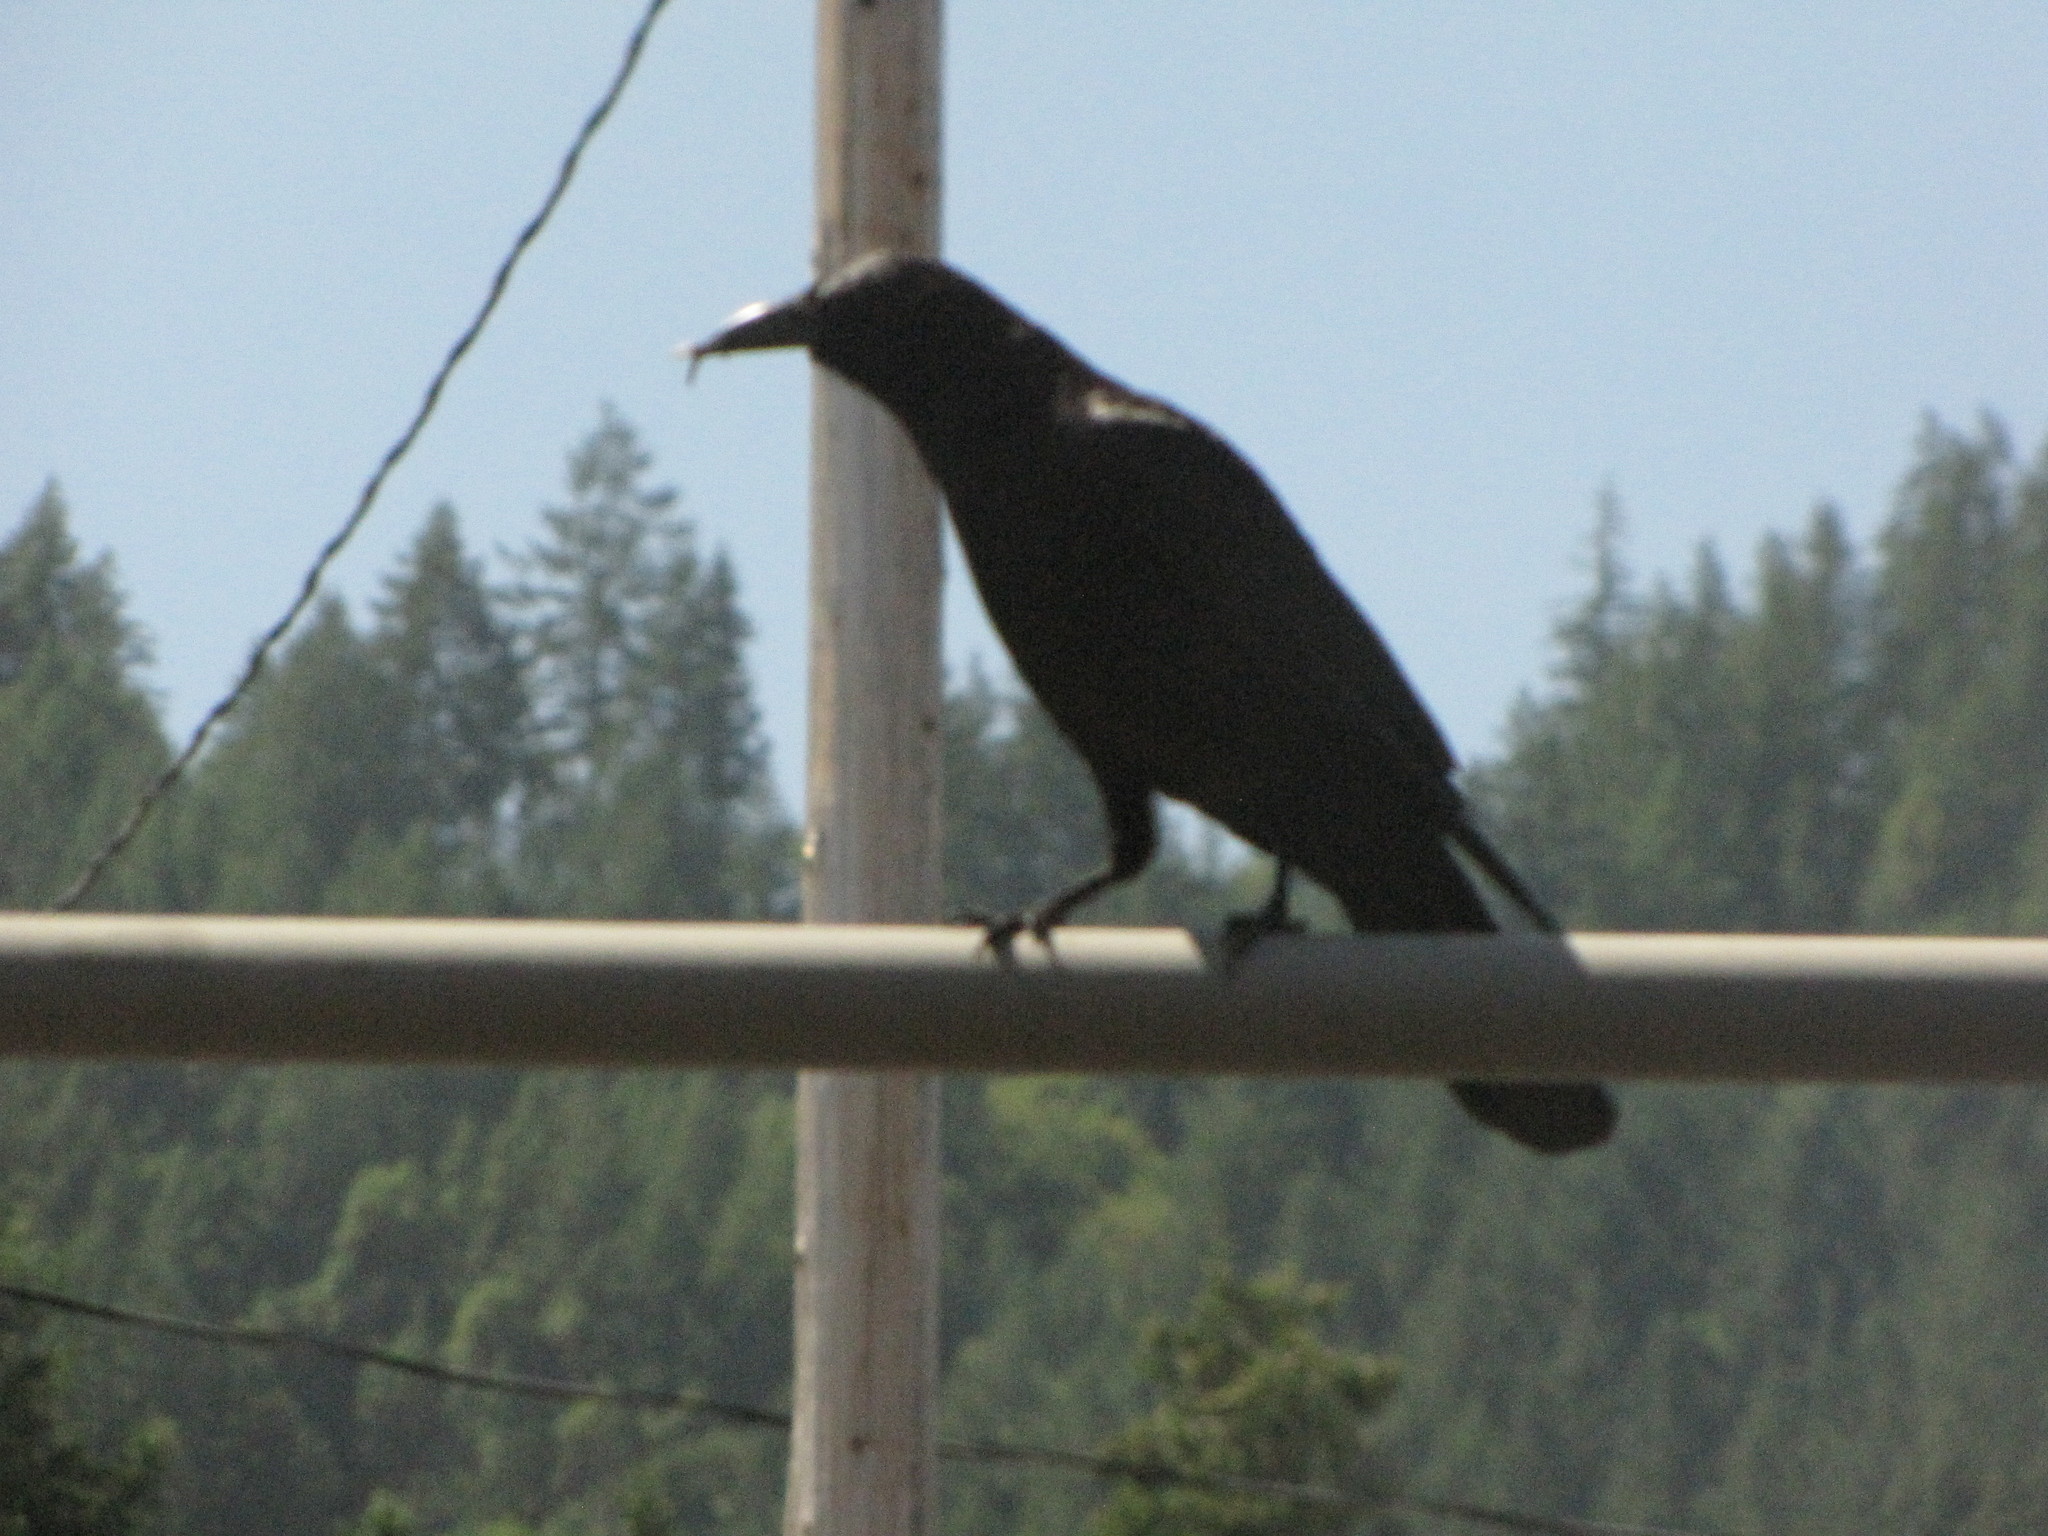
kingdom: Animalia
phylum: Chordata
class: Aves
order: Passeriformes
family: Corvidae
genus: Corvus
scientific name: Corvus brachyrhynchos
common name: American crow
